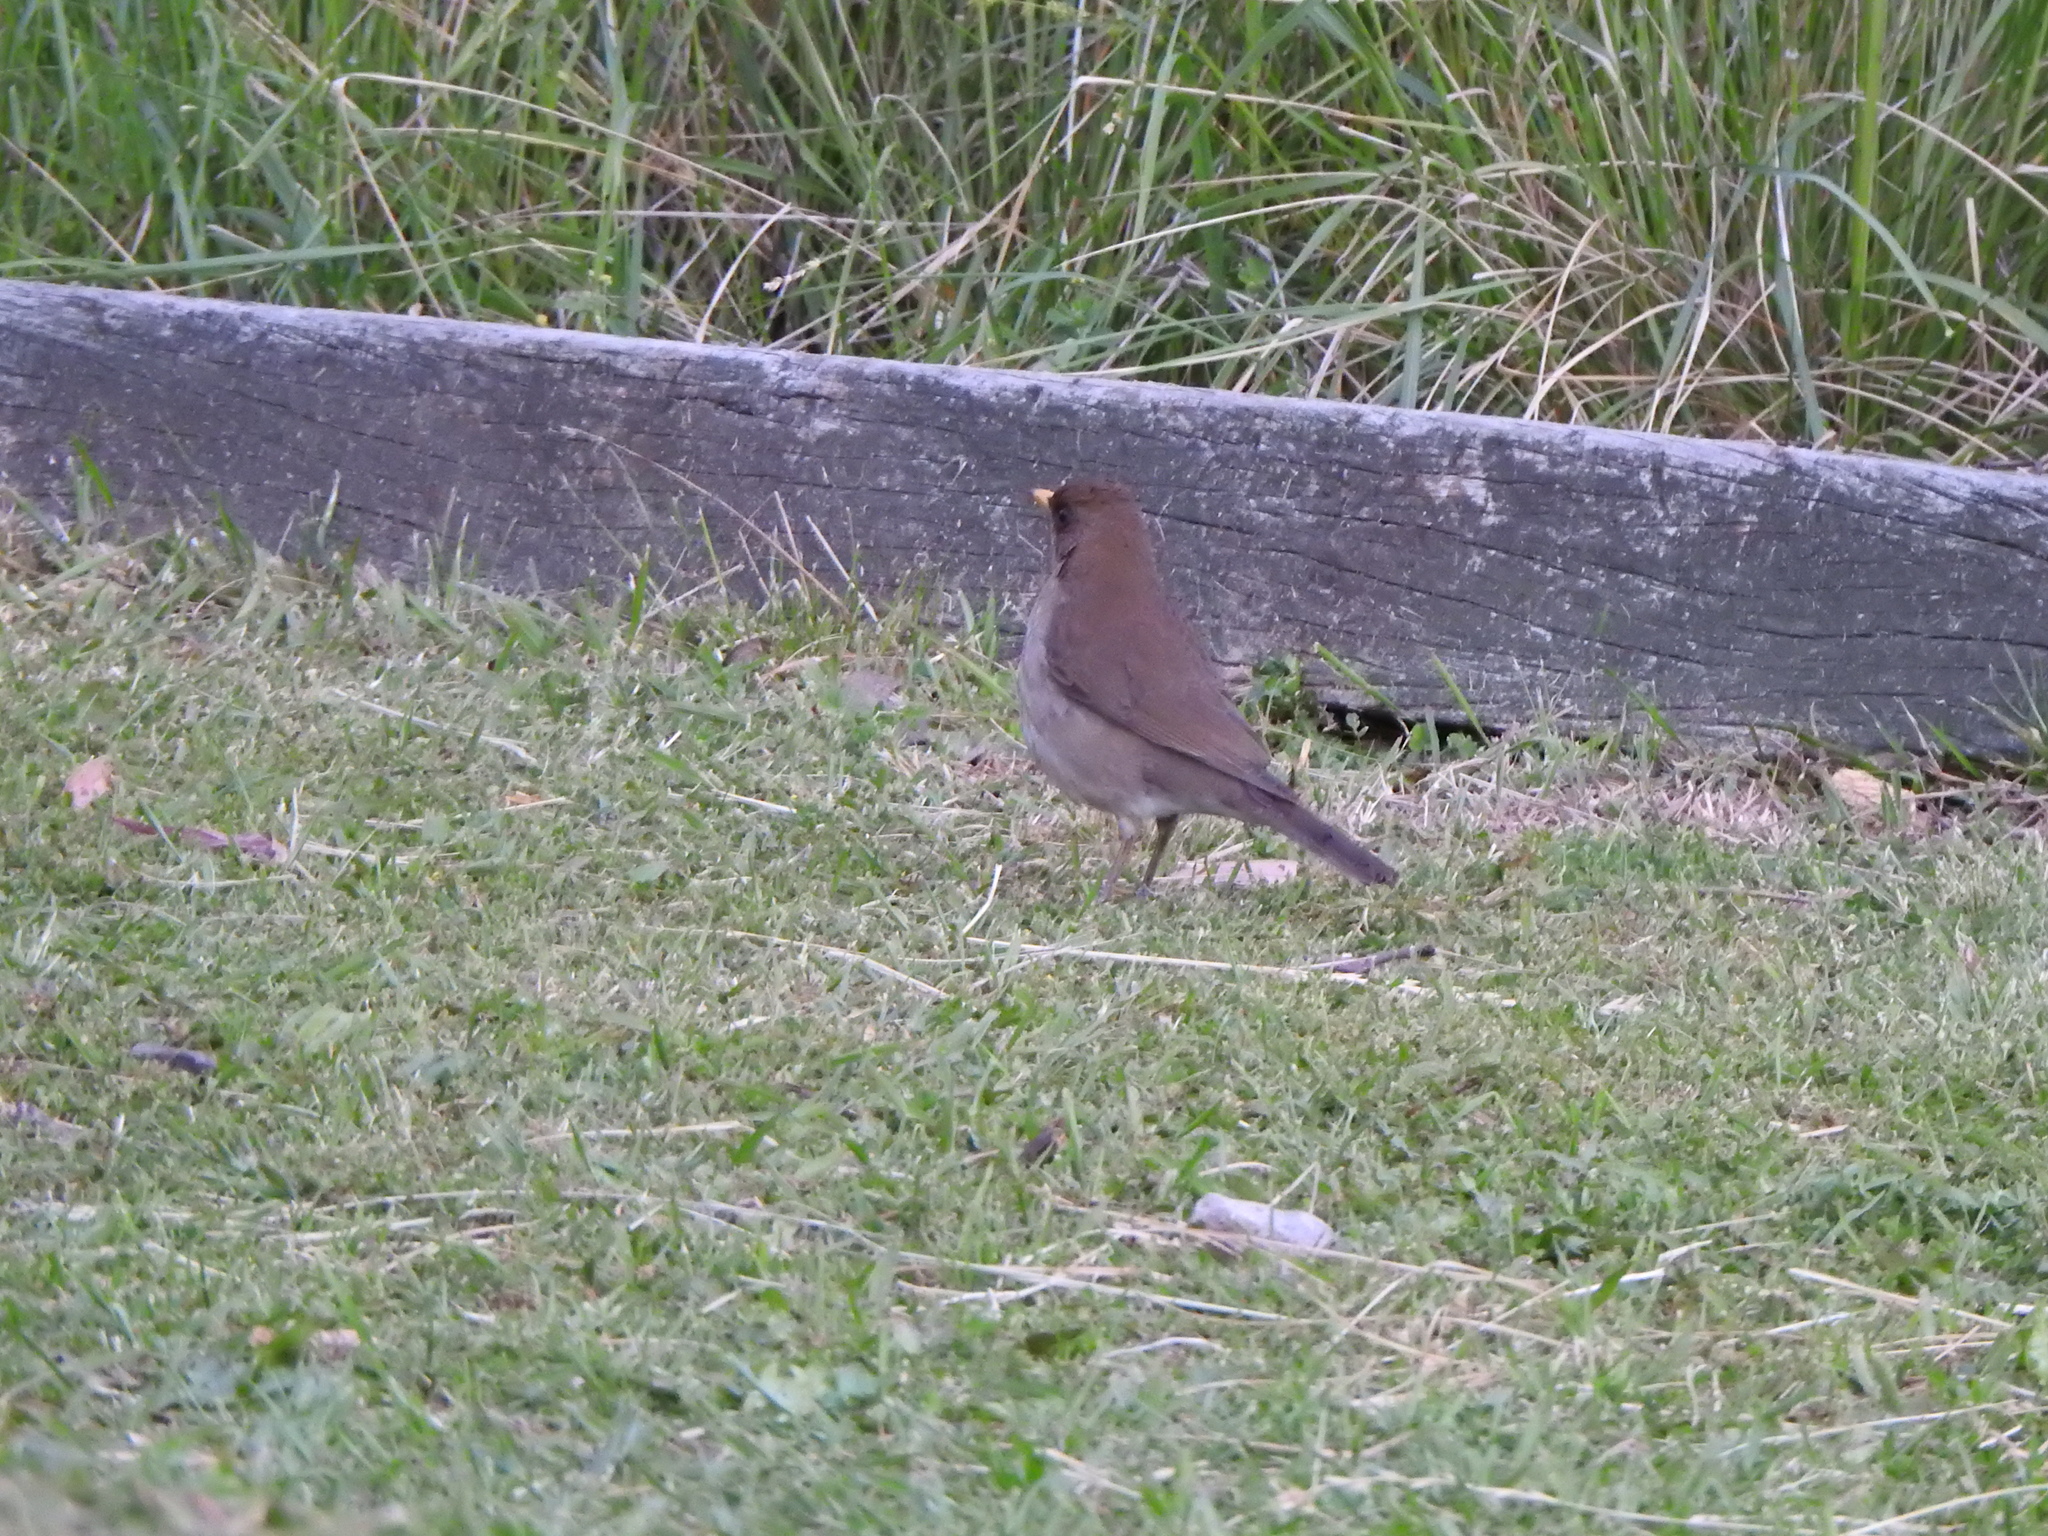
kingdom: Animalia
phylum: Chordata
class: Aves
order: Passeriformes
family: Turdidae
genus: Turdus
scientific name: Turdus amaurochalinus
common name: Creamy-bellied thrush
